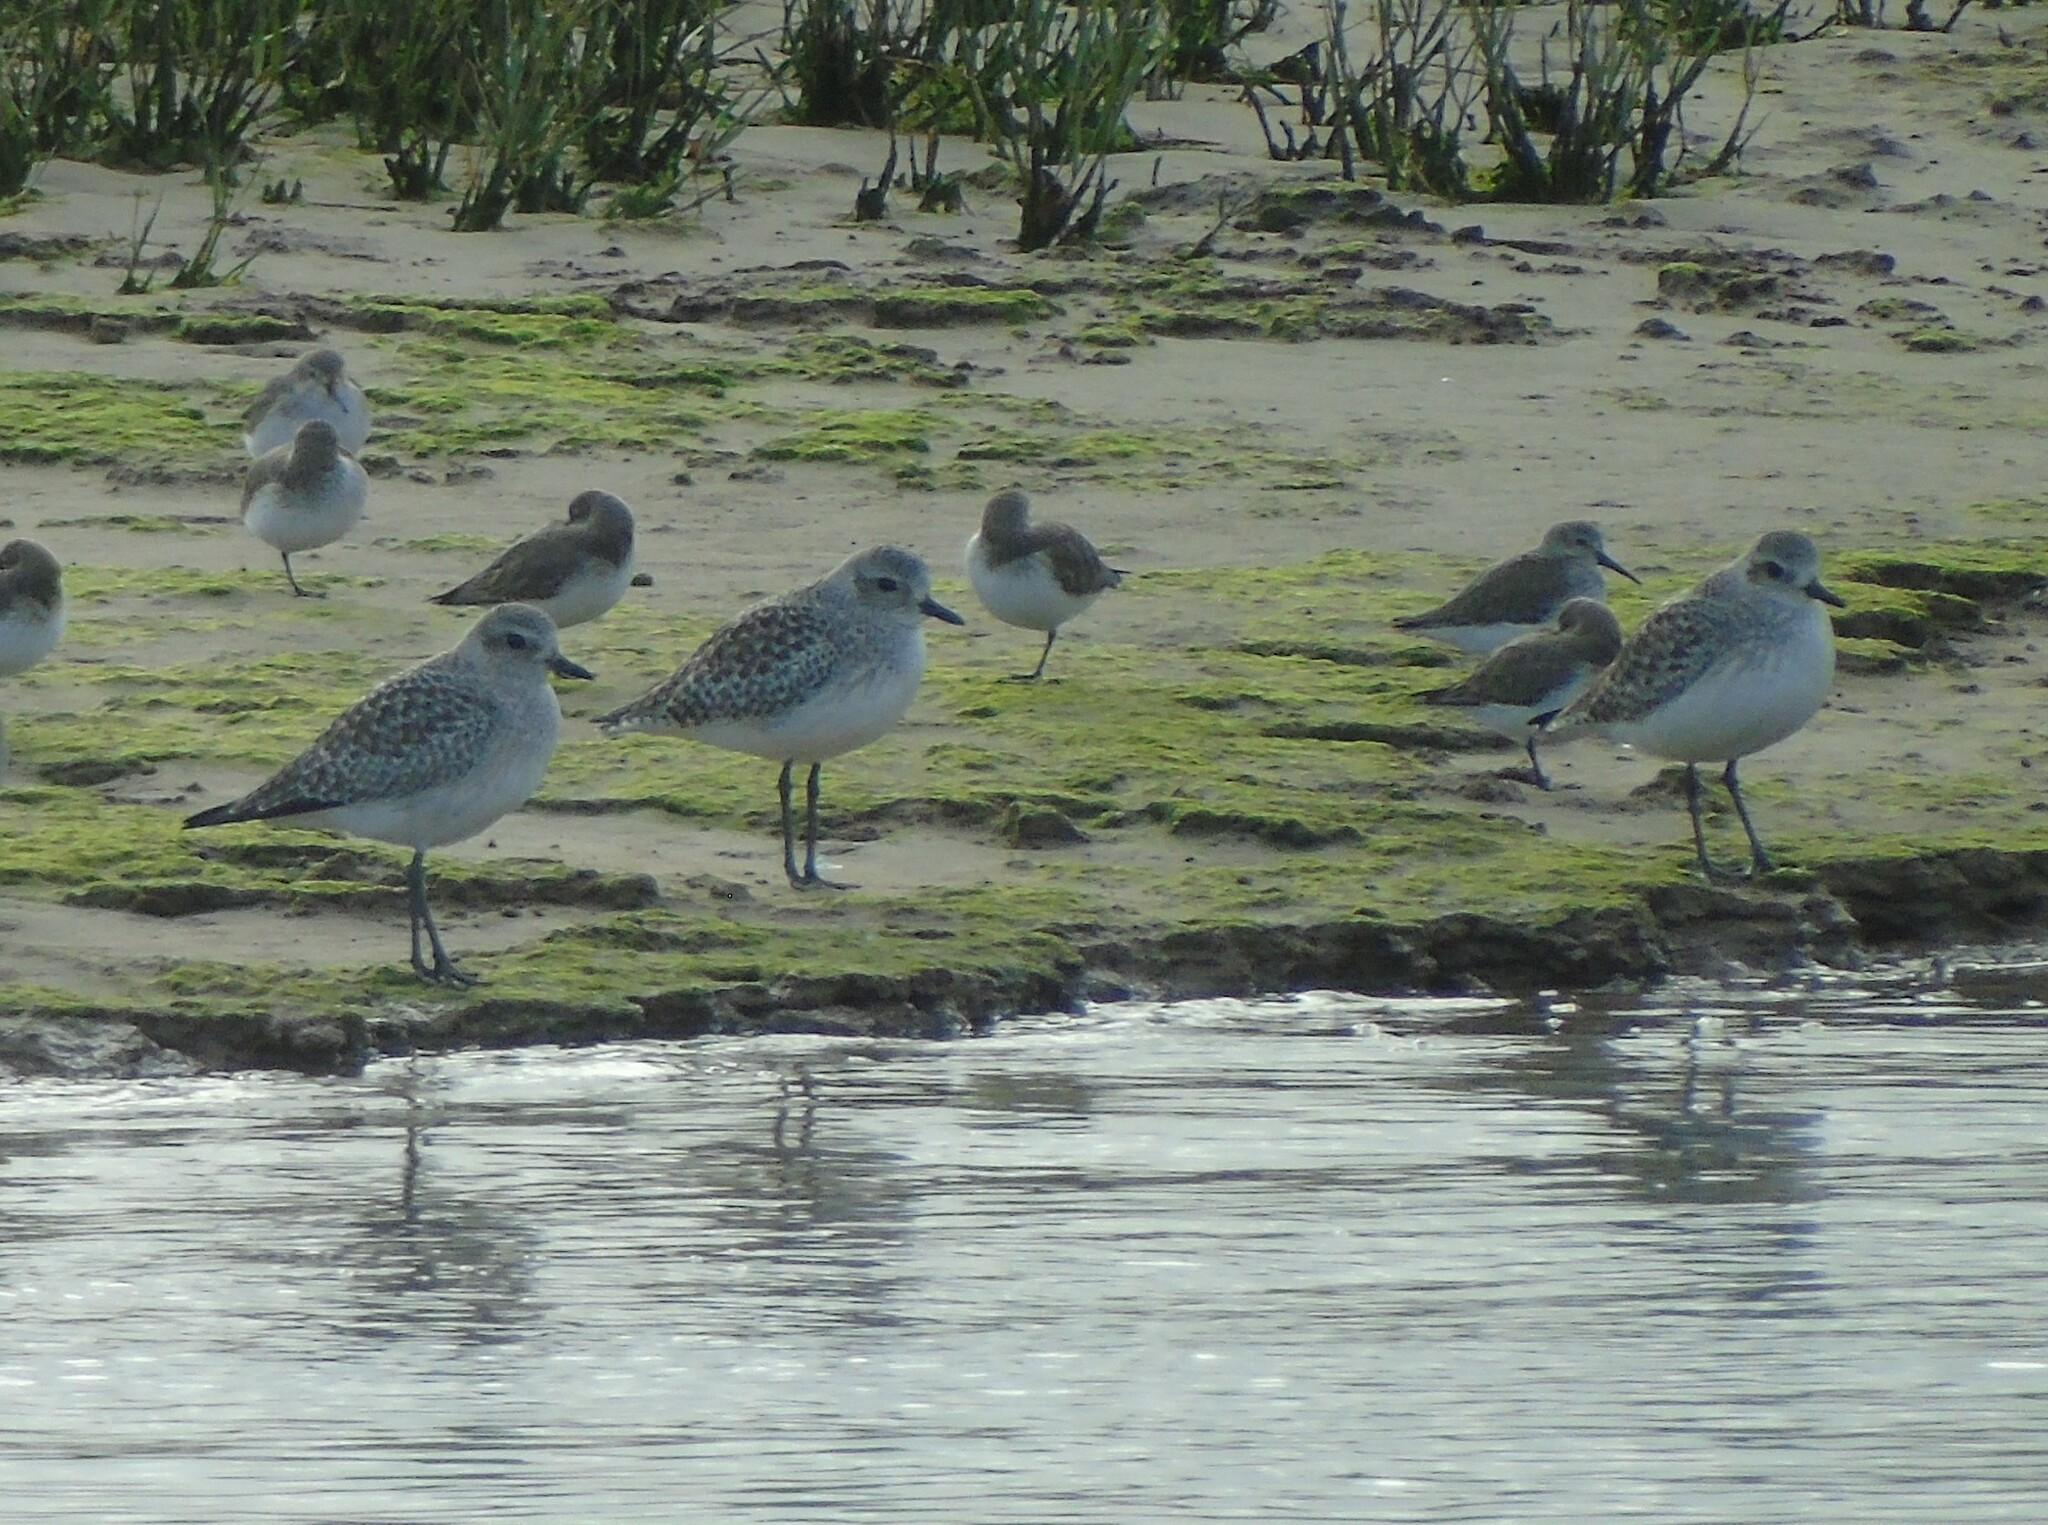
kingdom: Animalia
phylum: Chordata
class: Aves
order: Charadriiformes
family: Charadriidae
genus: Pluvialis
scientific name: Pluvialis squatarola
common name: Grey plover
